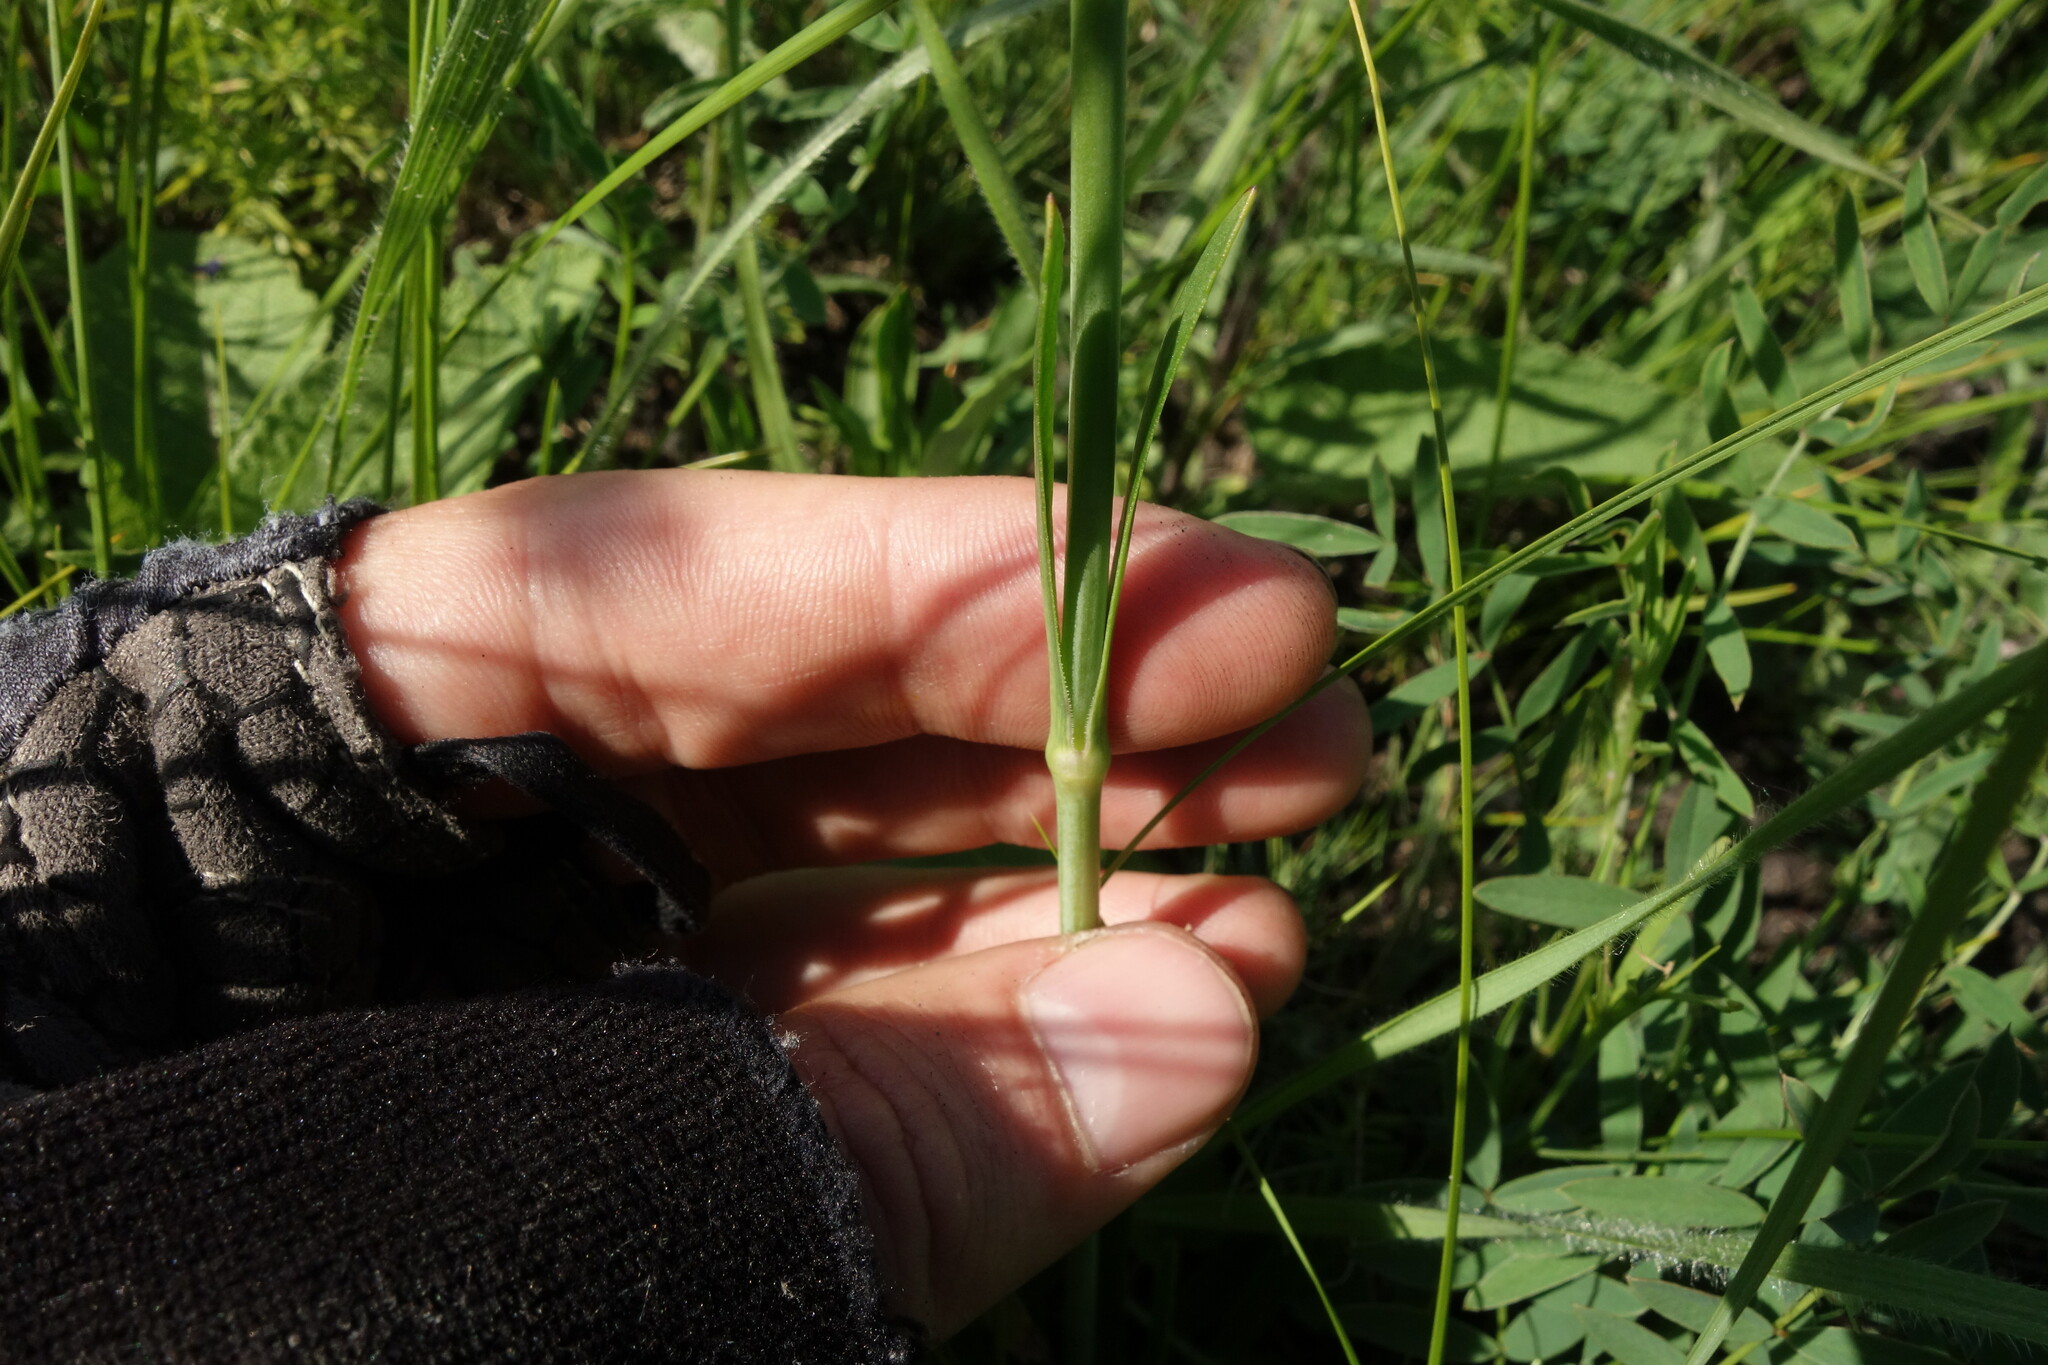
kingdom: Plantae
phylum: Tracheophyta
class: Magnoliopsida
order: Caryophyllales
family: Caryophyllaceae
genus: Silene
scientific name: Silene chlorantha
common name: Yellowgreen catchfly
